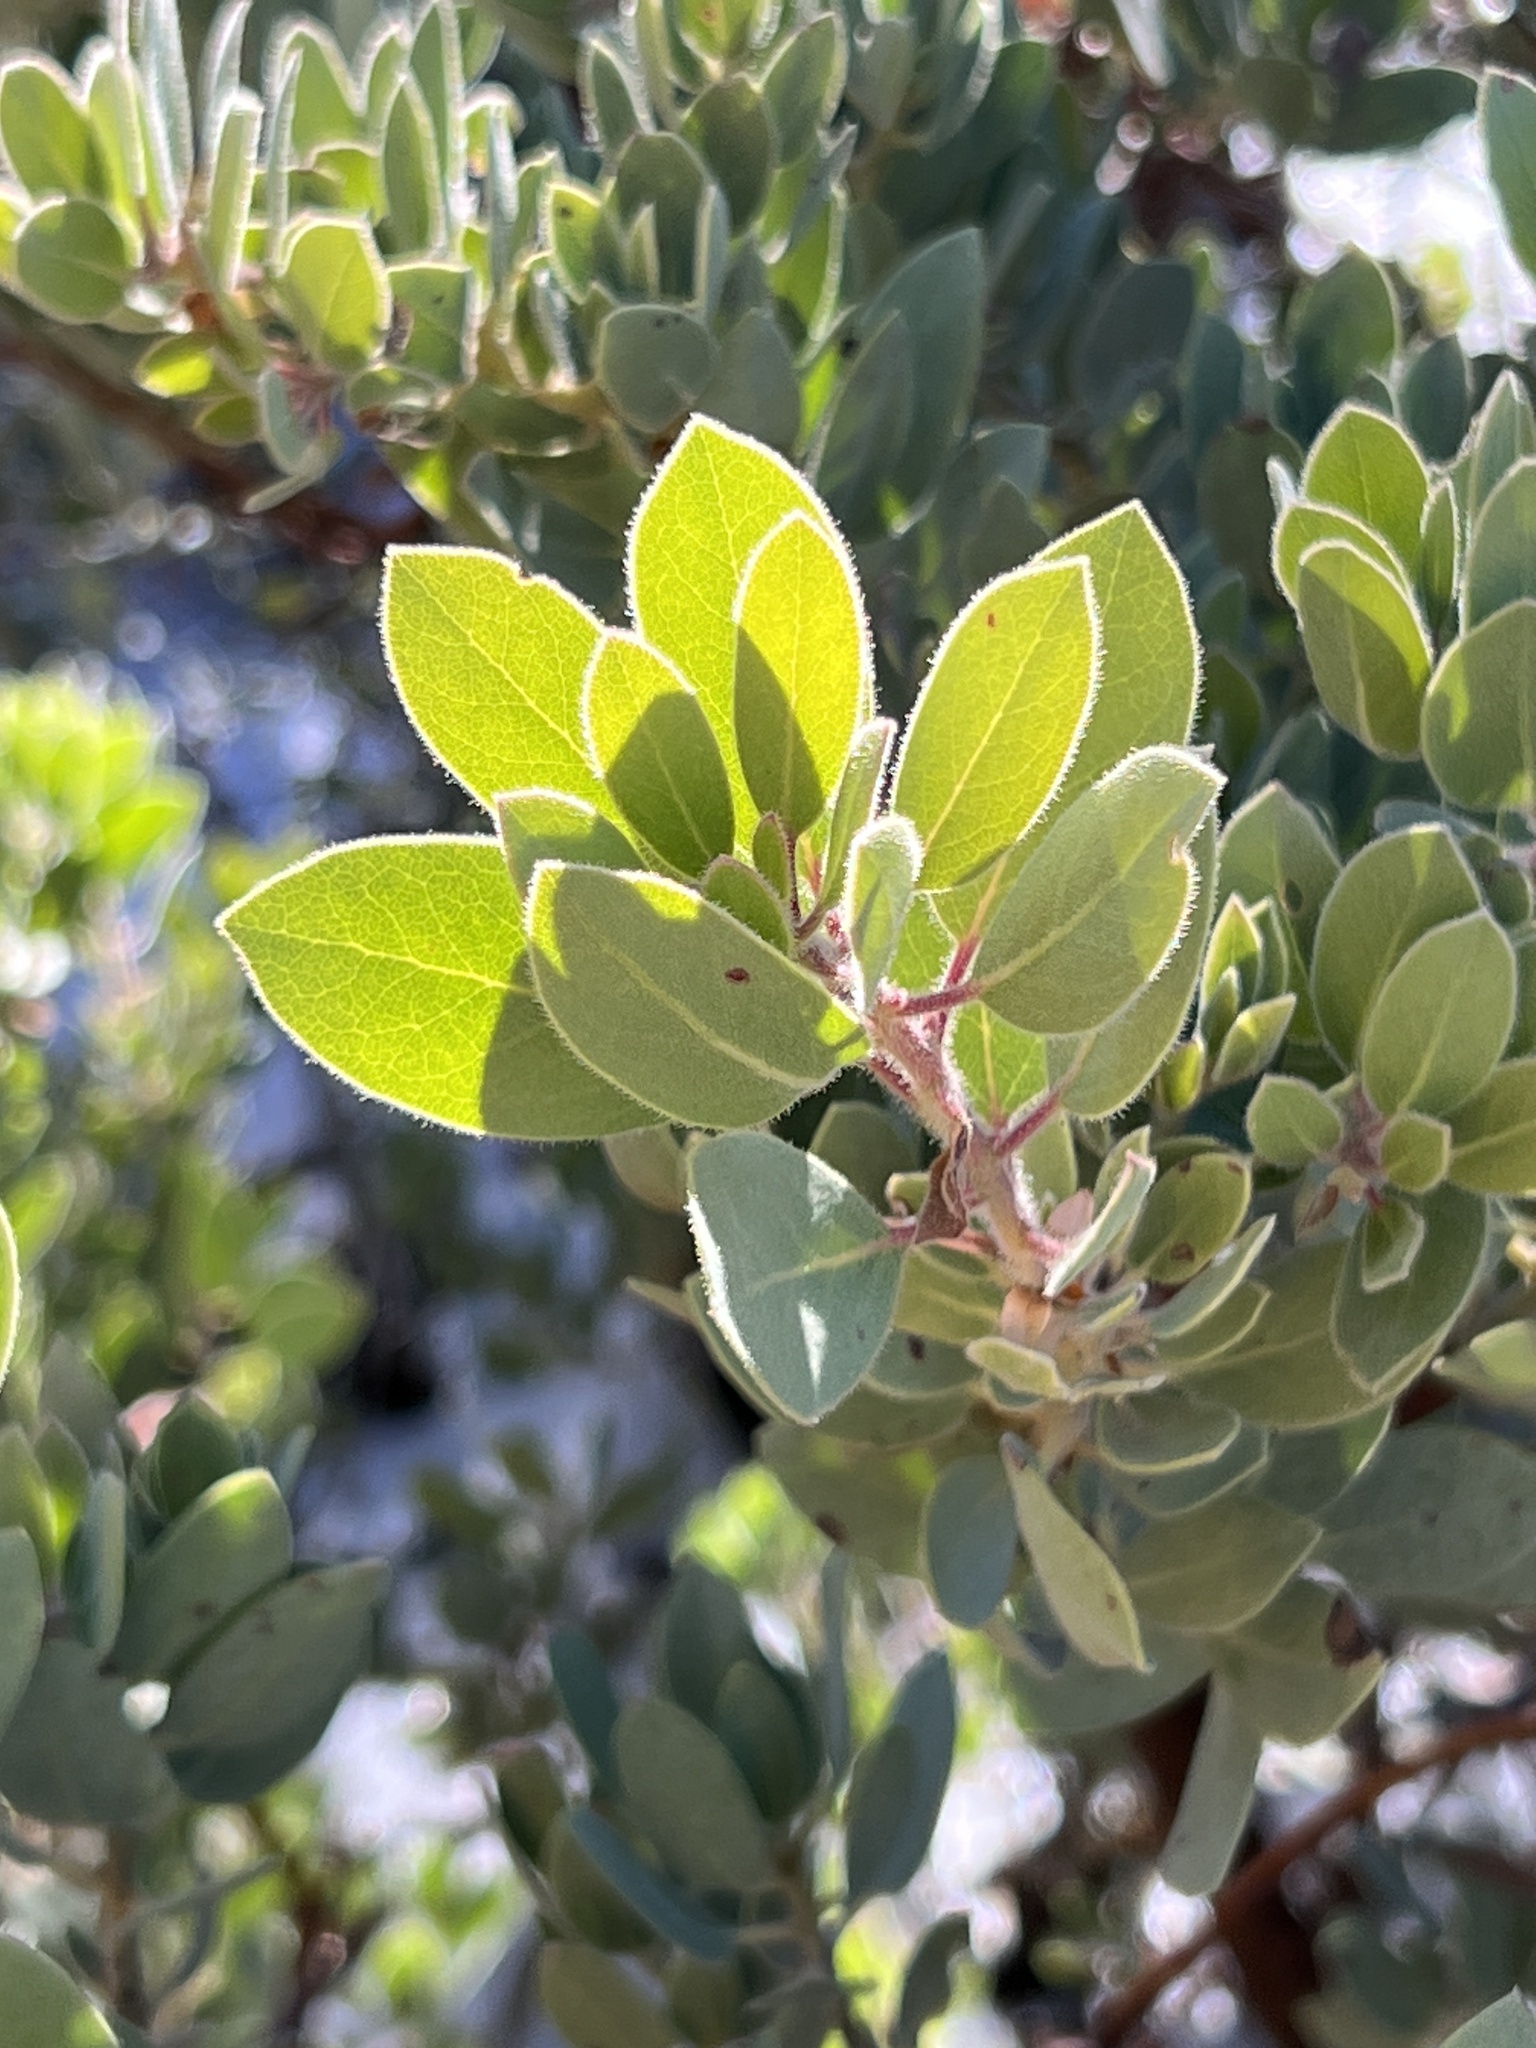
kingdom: Plantae
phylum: Tracheophyta
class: Magnoliopsida
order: Ericales
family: Ericaceae
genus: Arctostaphylos
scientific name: Arctostaphylos pringlei
